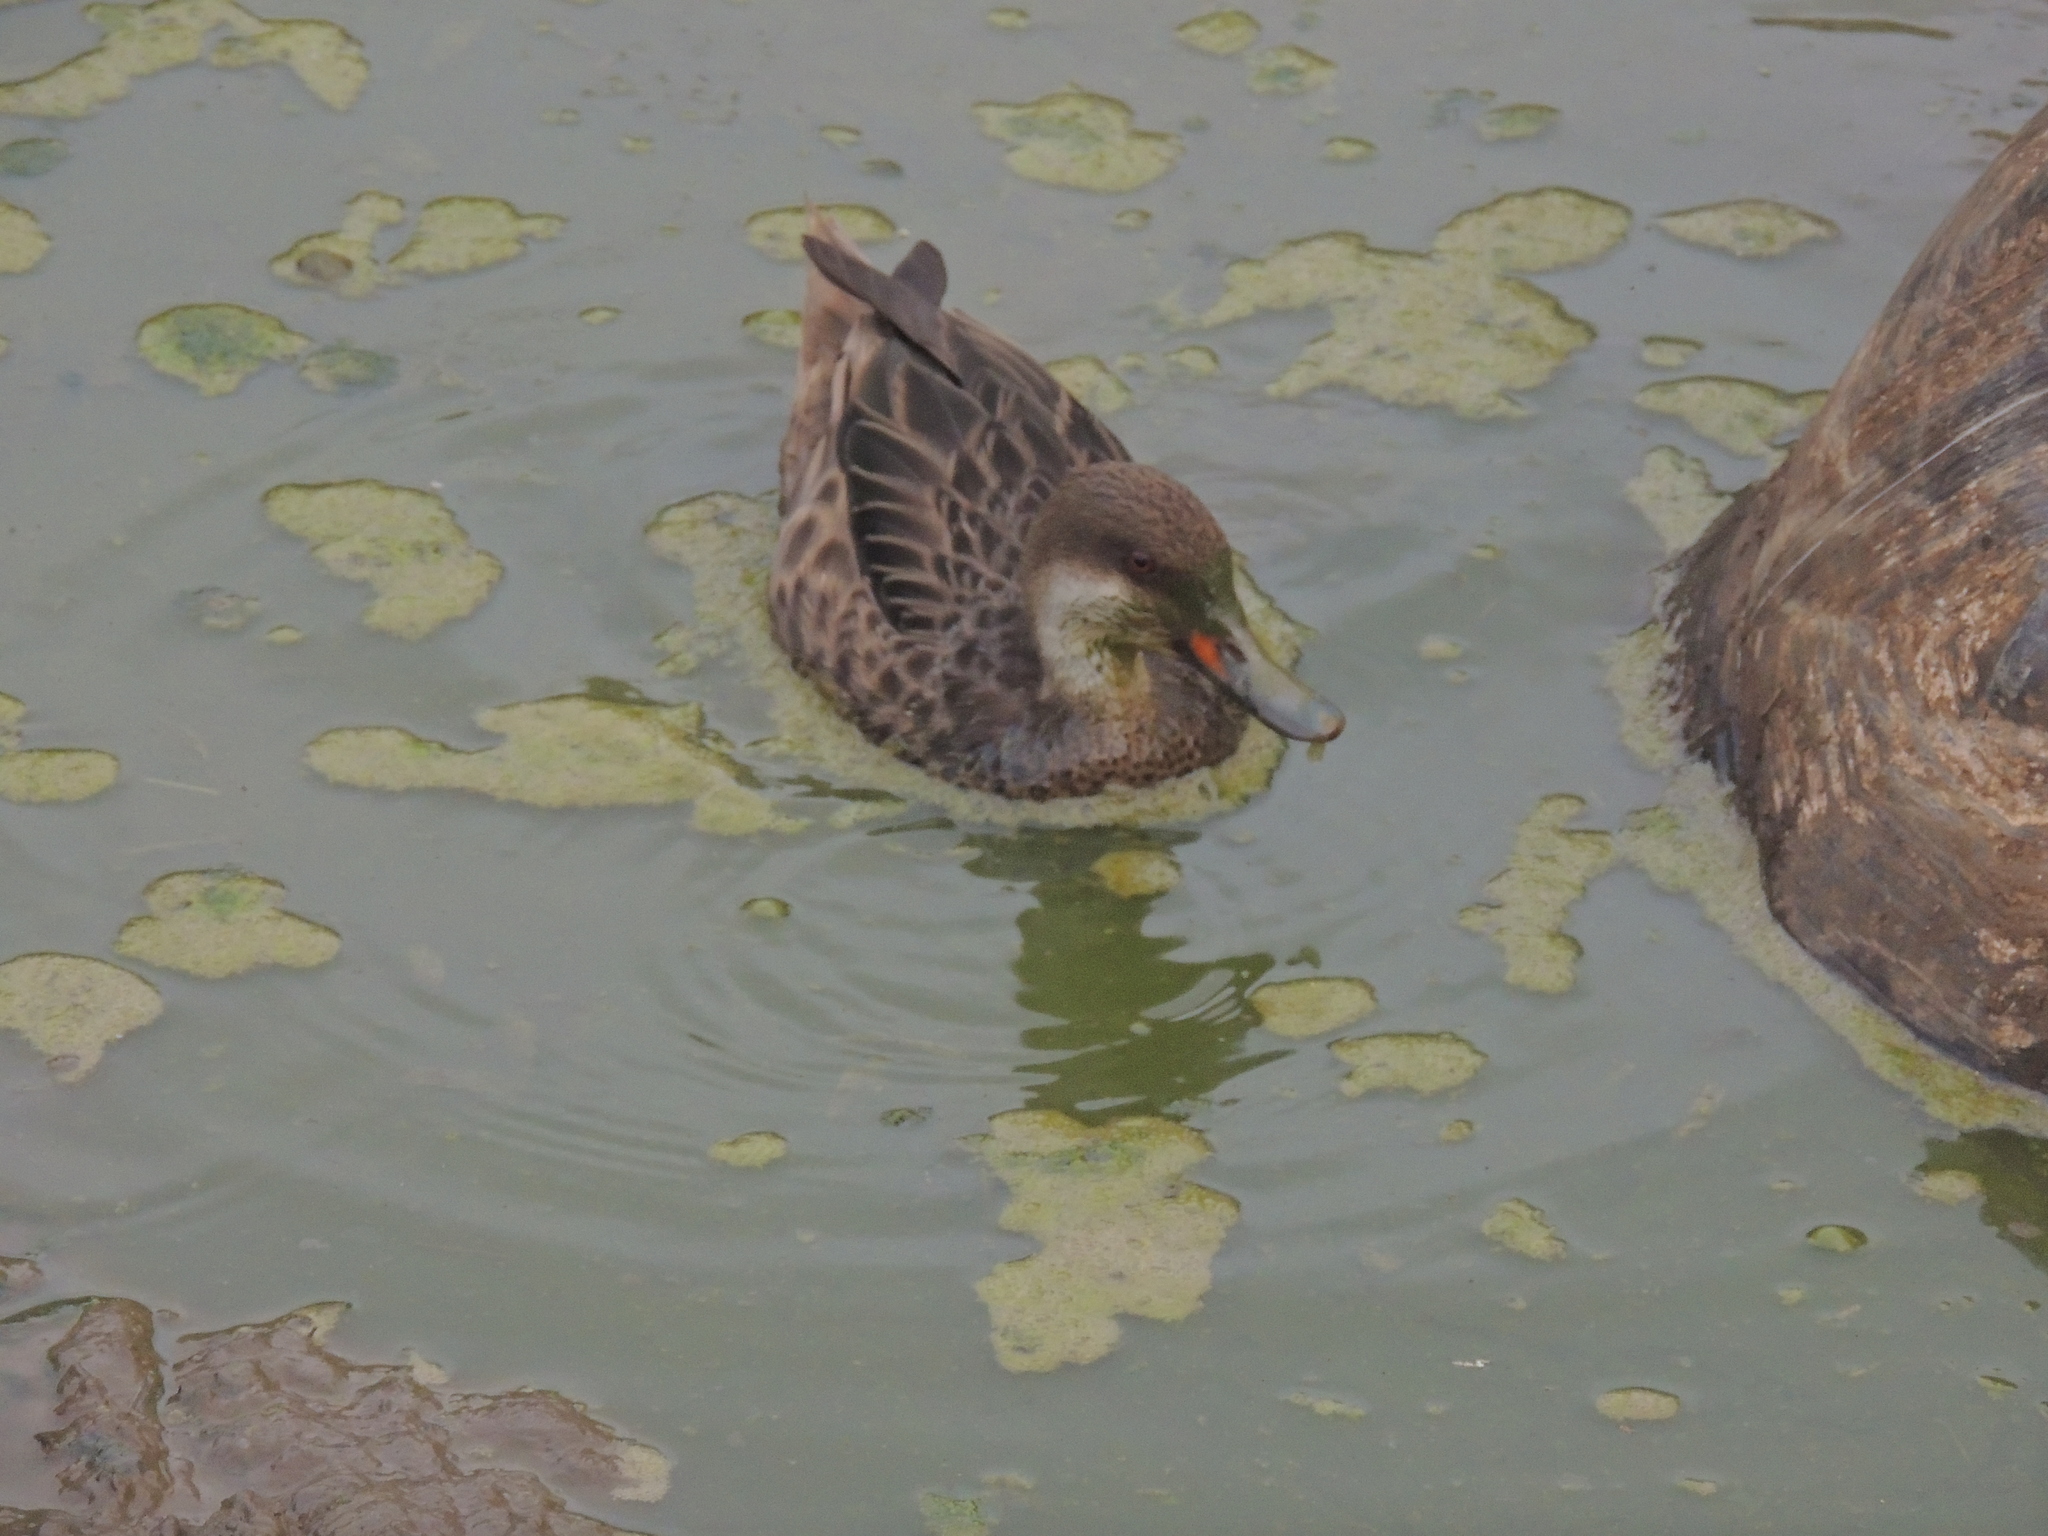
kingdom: Animalia
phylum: Chordata
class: Aves
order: Anseriformes
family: Anatidae
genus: Anas
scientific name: Anas bahamensis
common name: White-cheeked pintail
